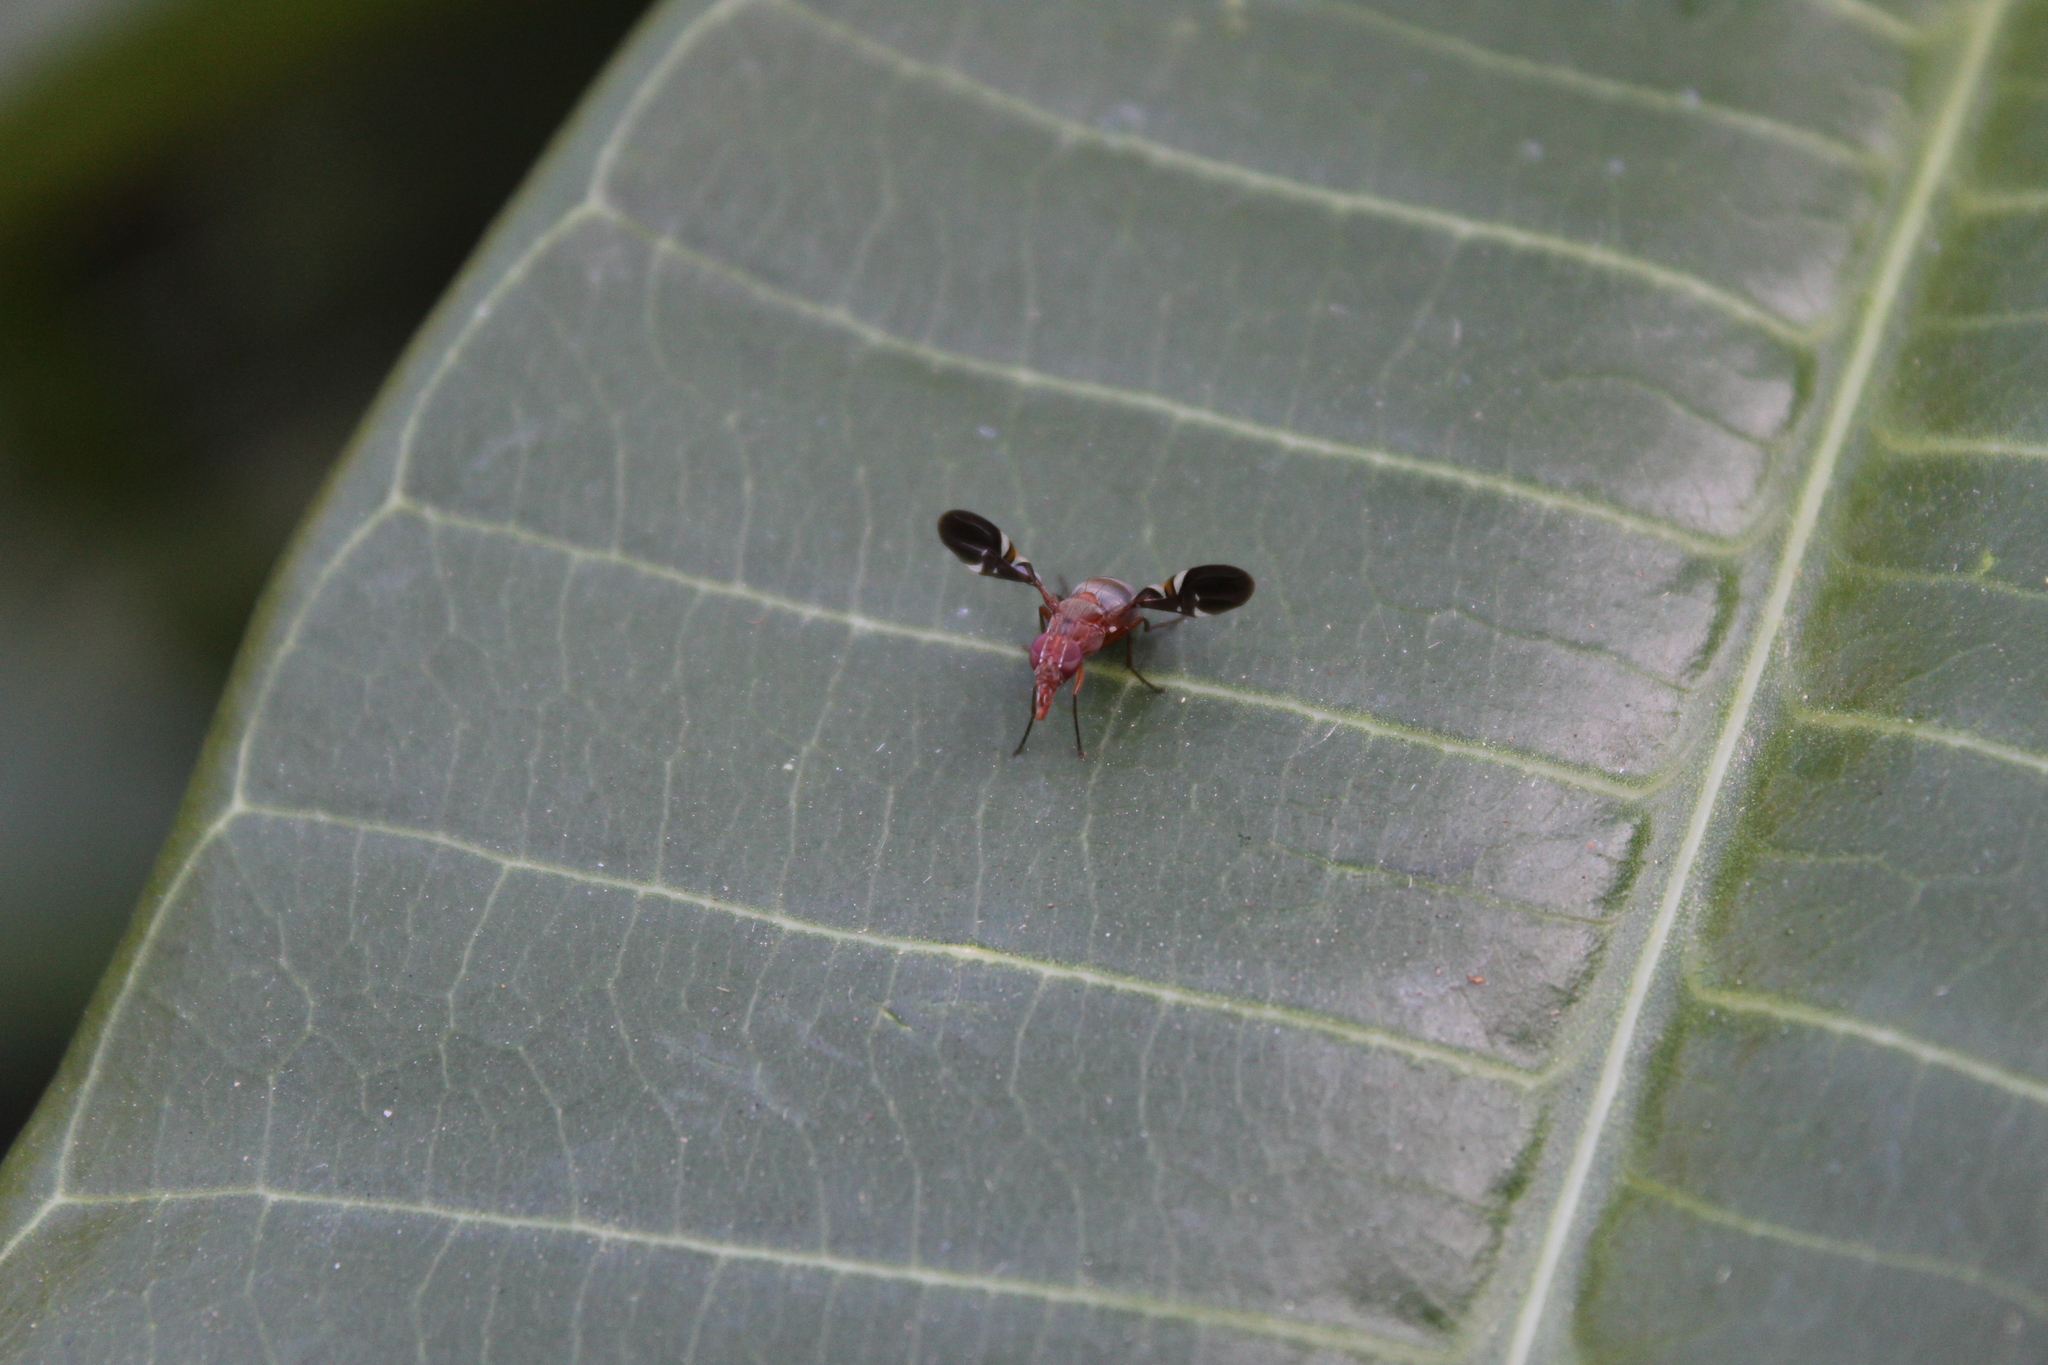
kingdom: Animalia
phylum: Arthropoda
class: Insecta
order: Diptera
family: Ulidiidae
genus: Delphinia
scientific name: Delphinia picta
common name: Common picture-winged fly
